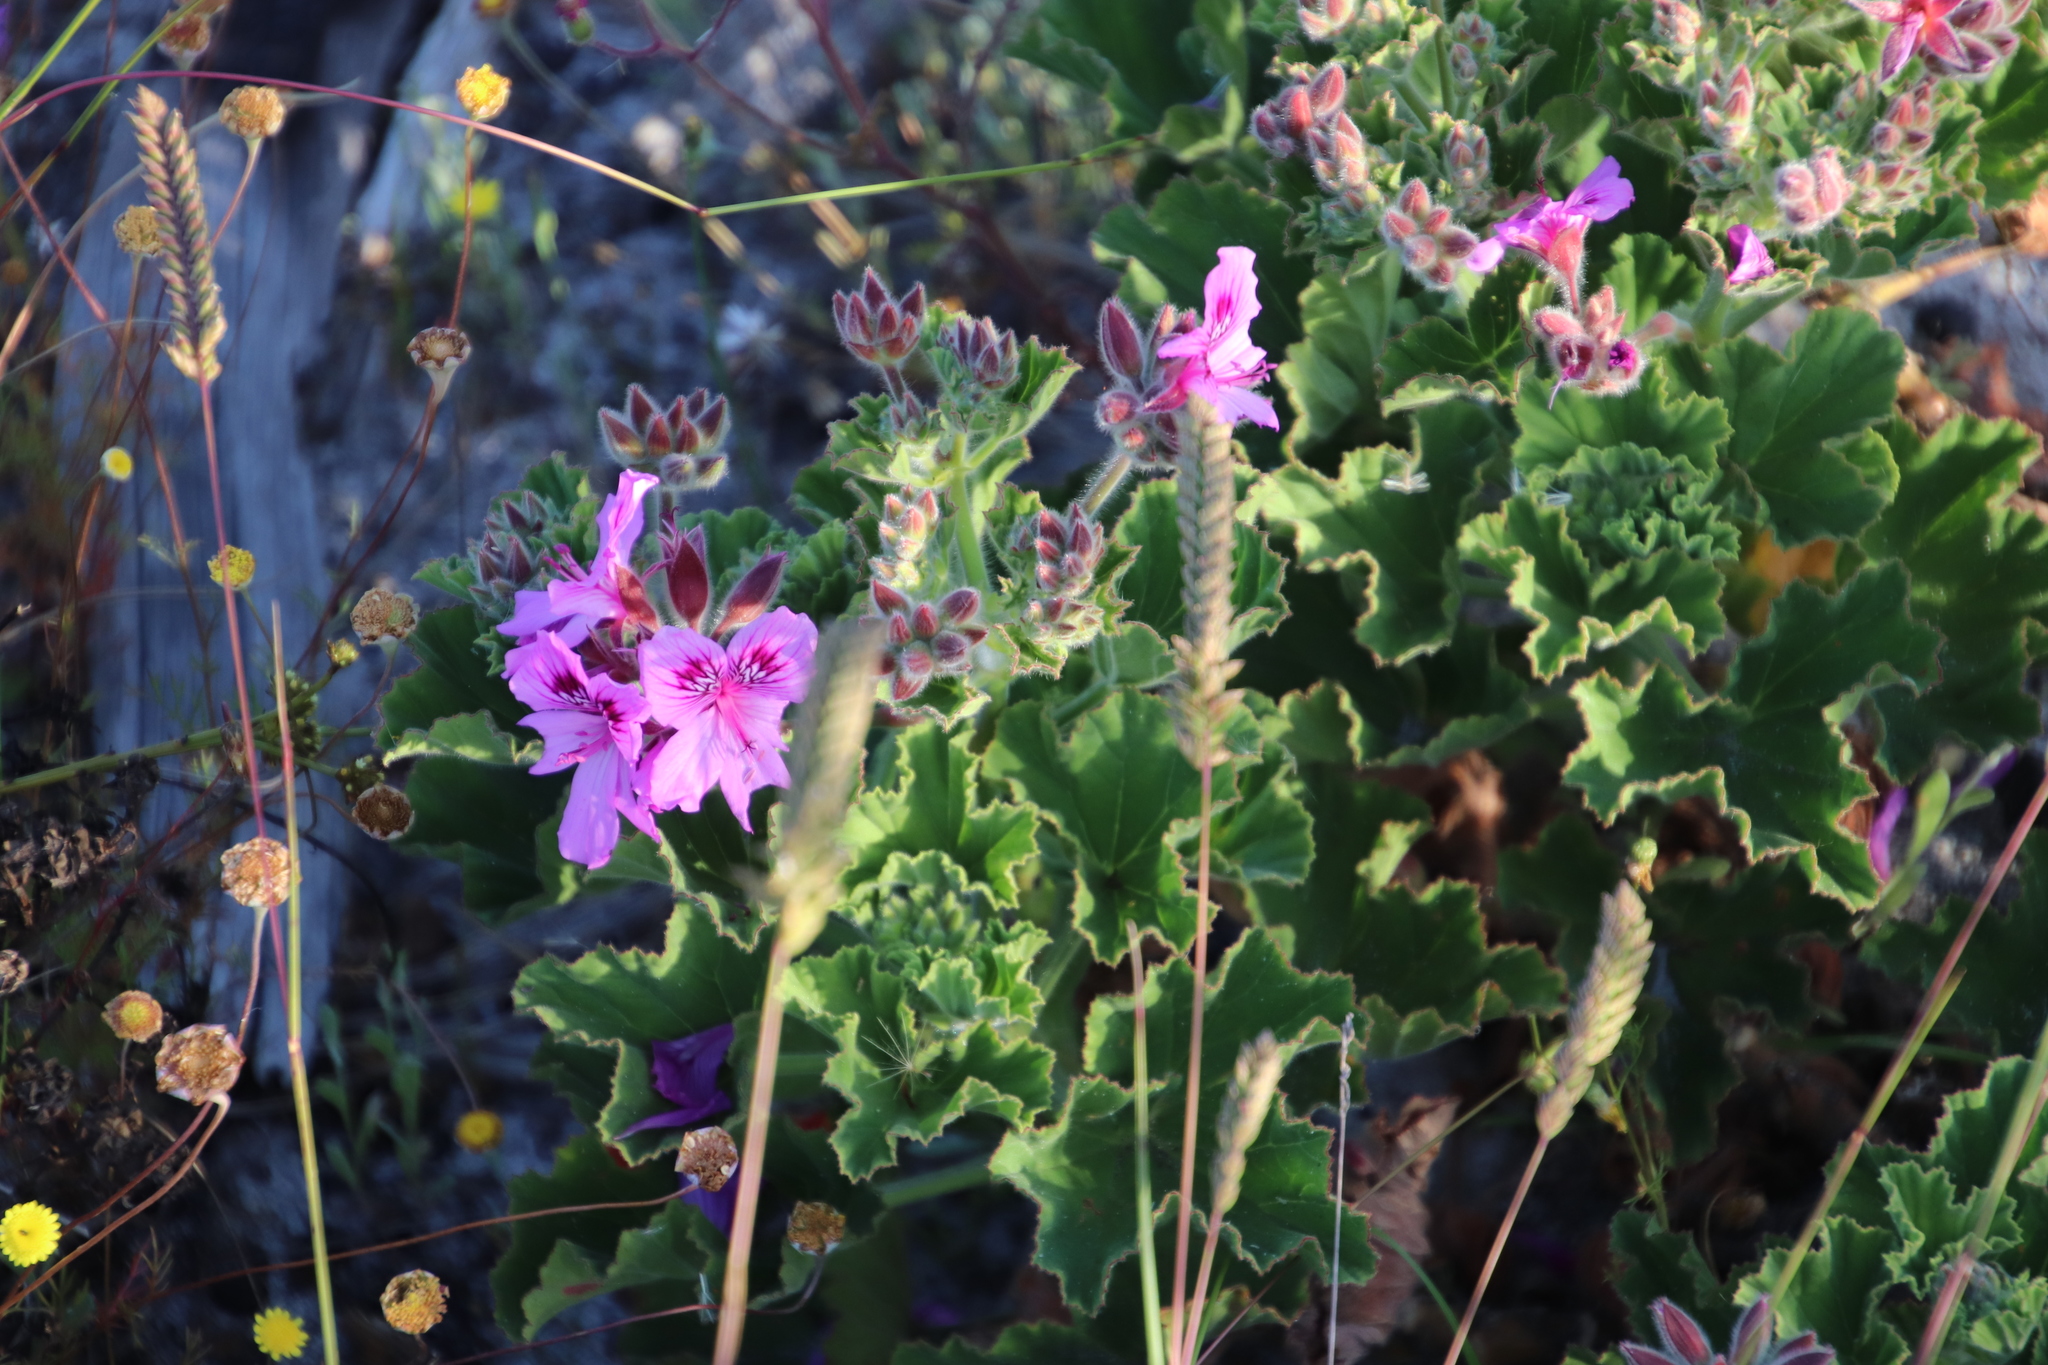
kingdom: Plantae
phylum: Tracheophyta
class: Magnoliopsida
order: Geraniales
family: Geraniaceae
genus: Pelargonium
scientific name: Pelargonium cucullatum
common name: Tree pelargonium
